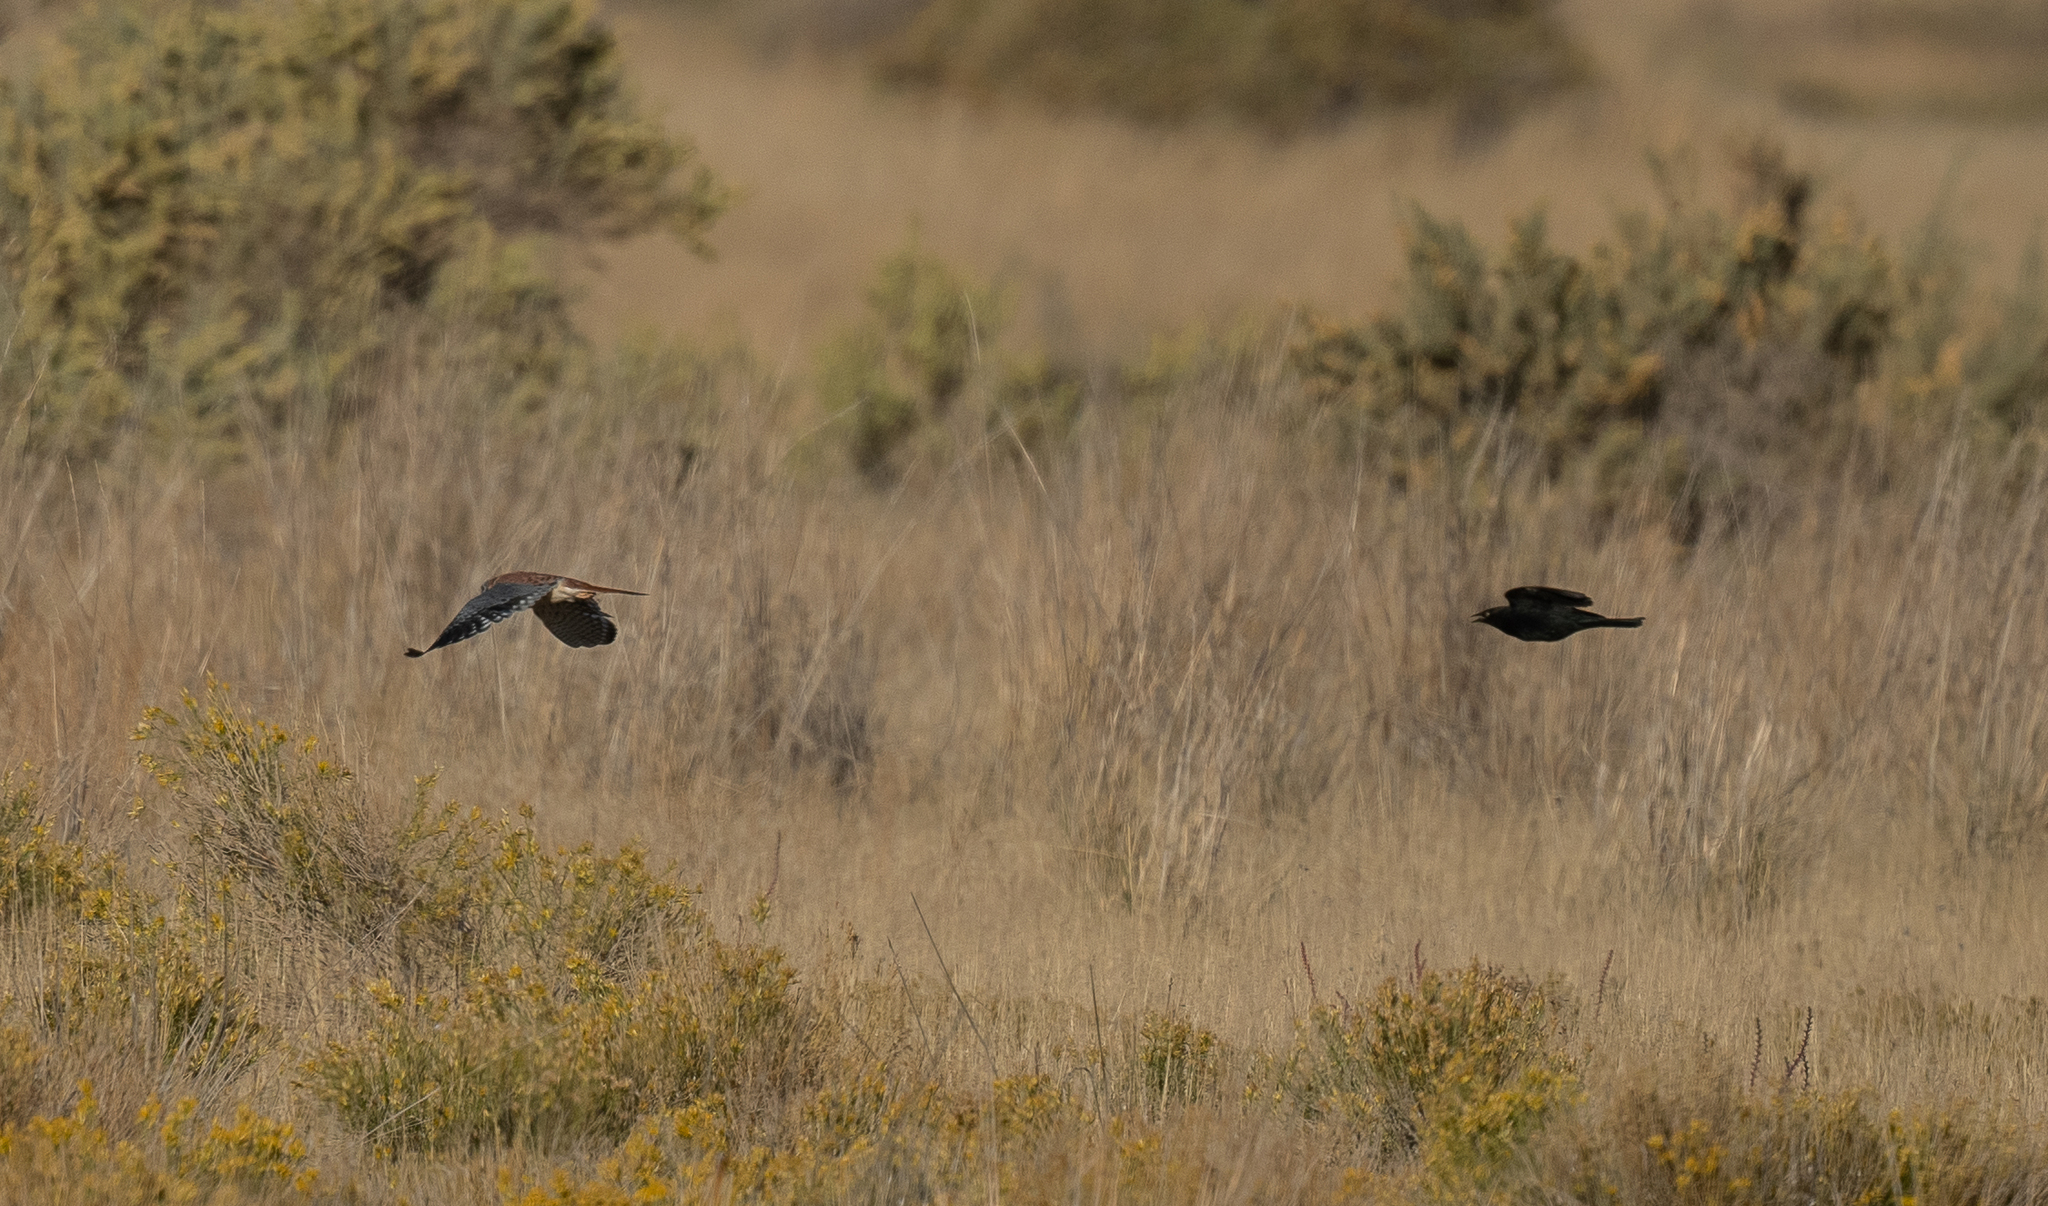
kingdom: Animalia
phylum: Chordata
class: Aves
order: Passeriformes
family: Icteridae
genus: Euphagus
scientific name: Euphagus cyanocephalus
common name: Brewer's blackbird
